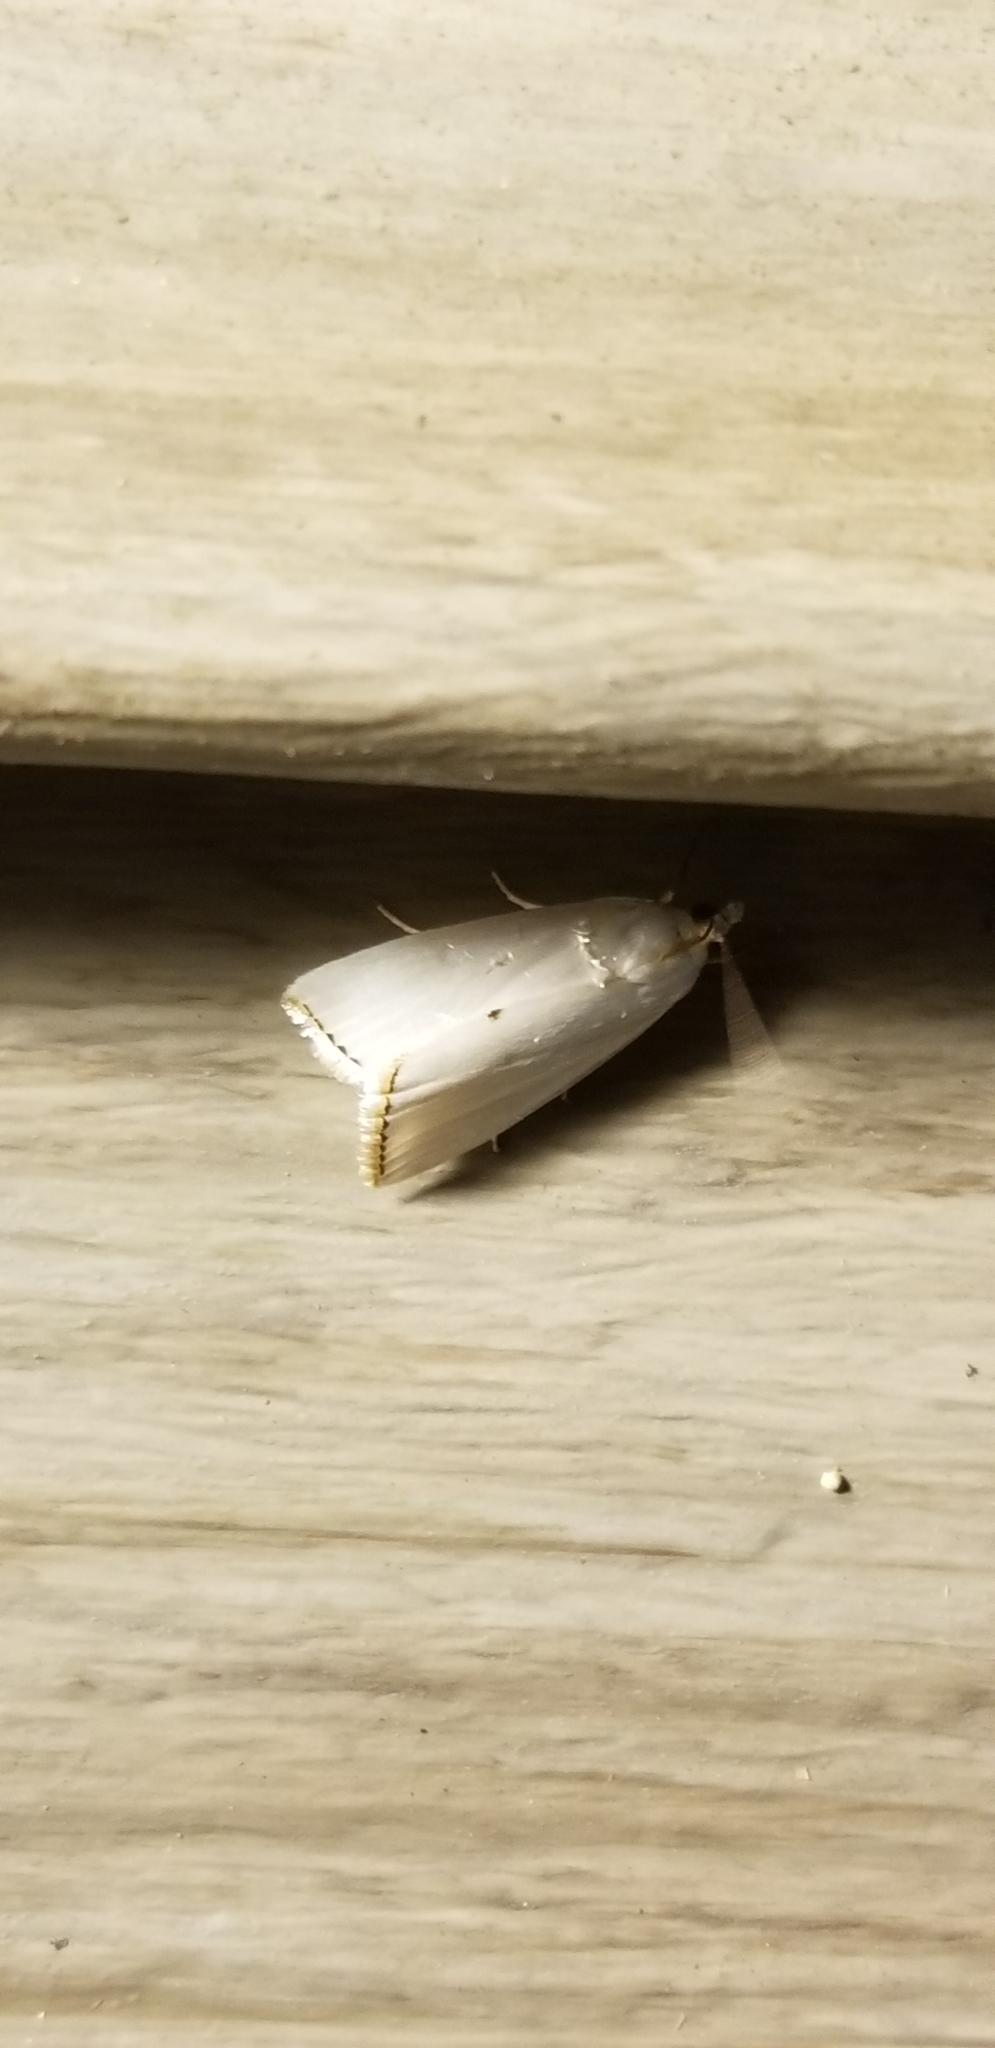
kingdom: Animalia
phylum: Arthropoda
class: Insecta
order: Lepidoptera
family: Crambidae
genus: Argyria
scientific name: Argyria nivalis
